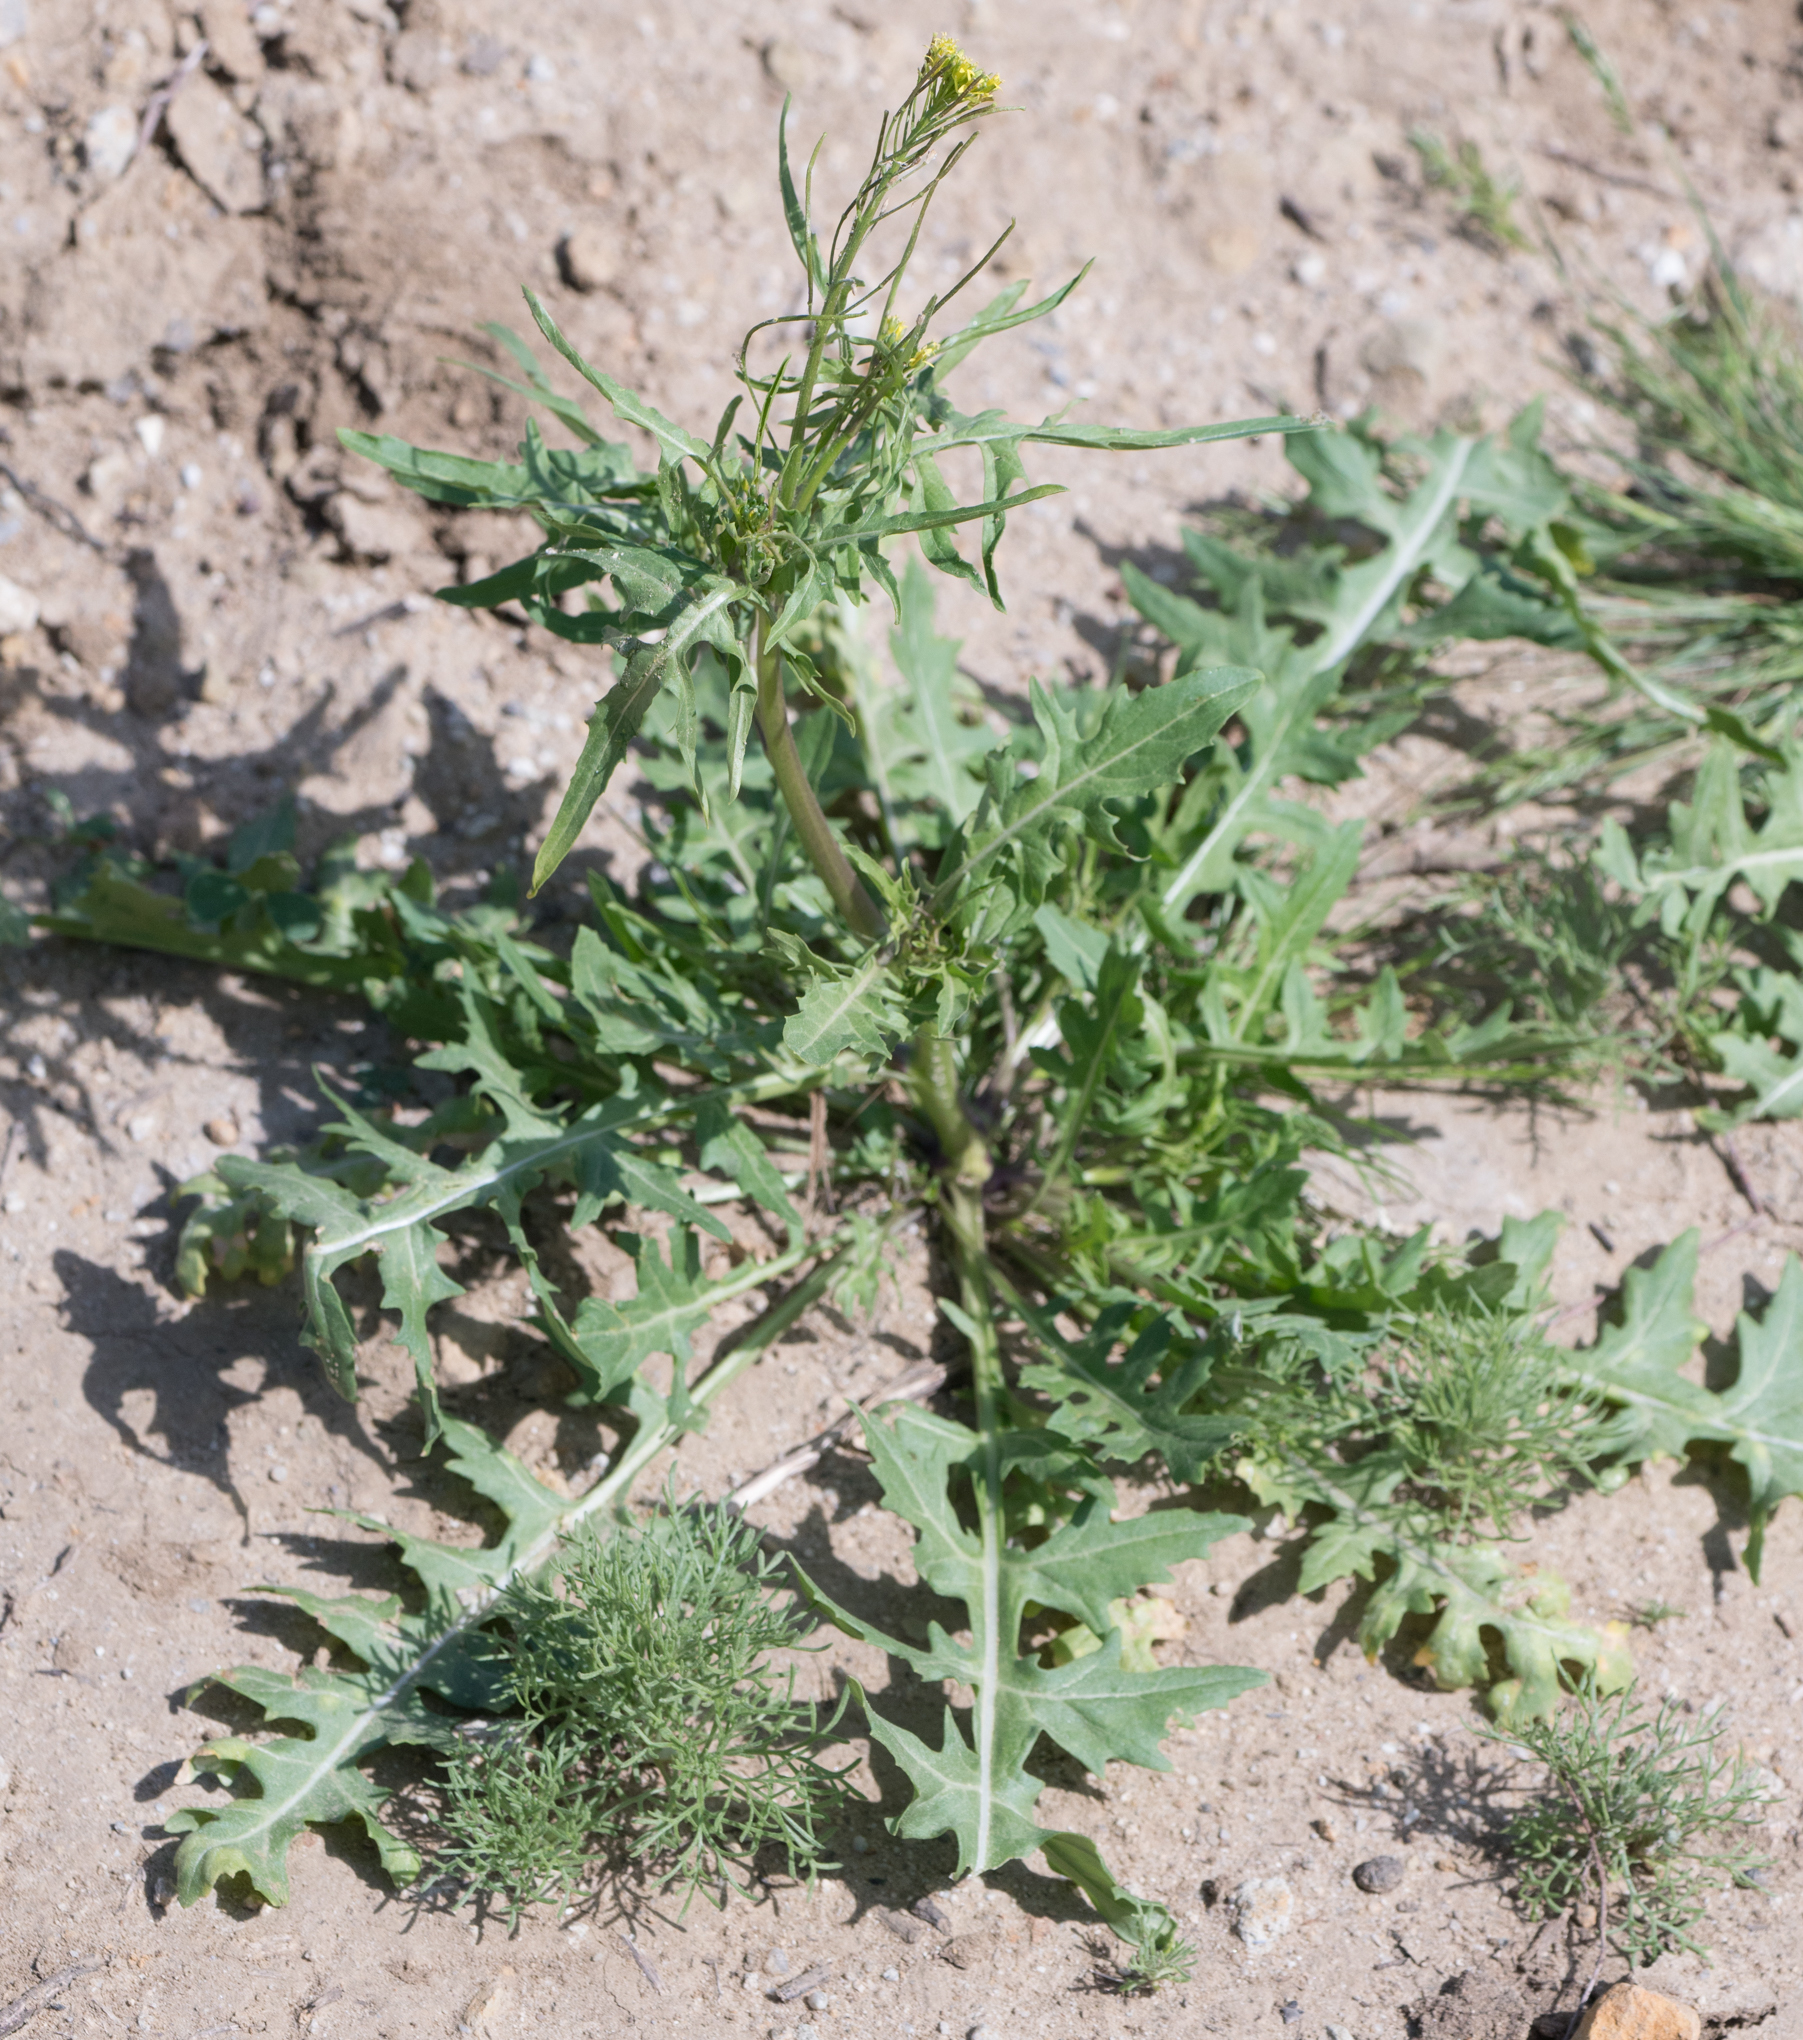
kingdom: Plantae
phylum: Tracheophyta
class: Magnoliopsida
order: Brassicales
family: Brassicaceae
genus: Sisymbrium
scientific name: Sisymbrium irio
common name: London rocket
